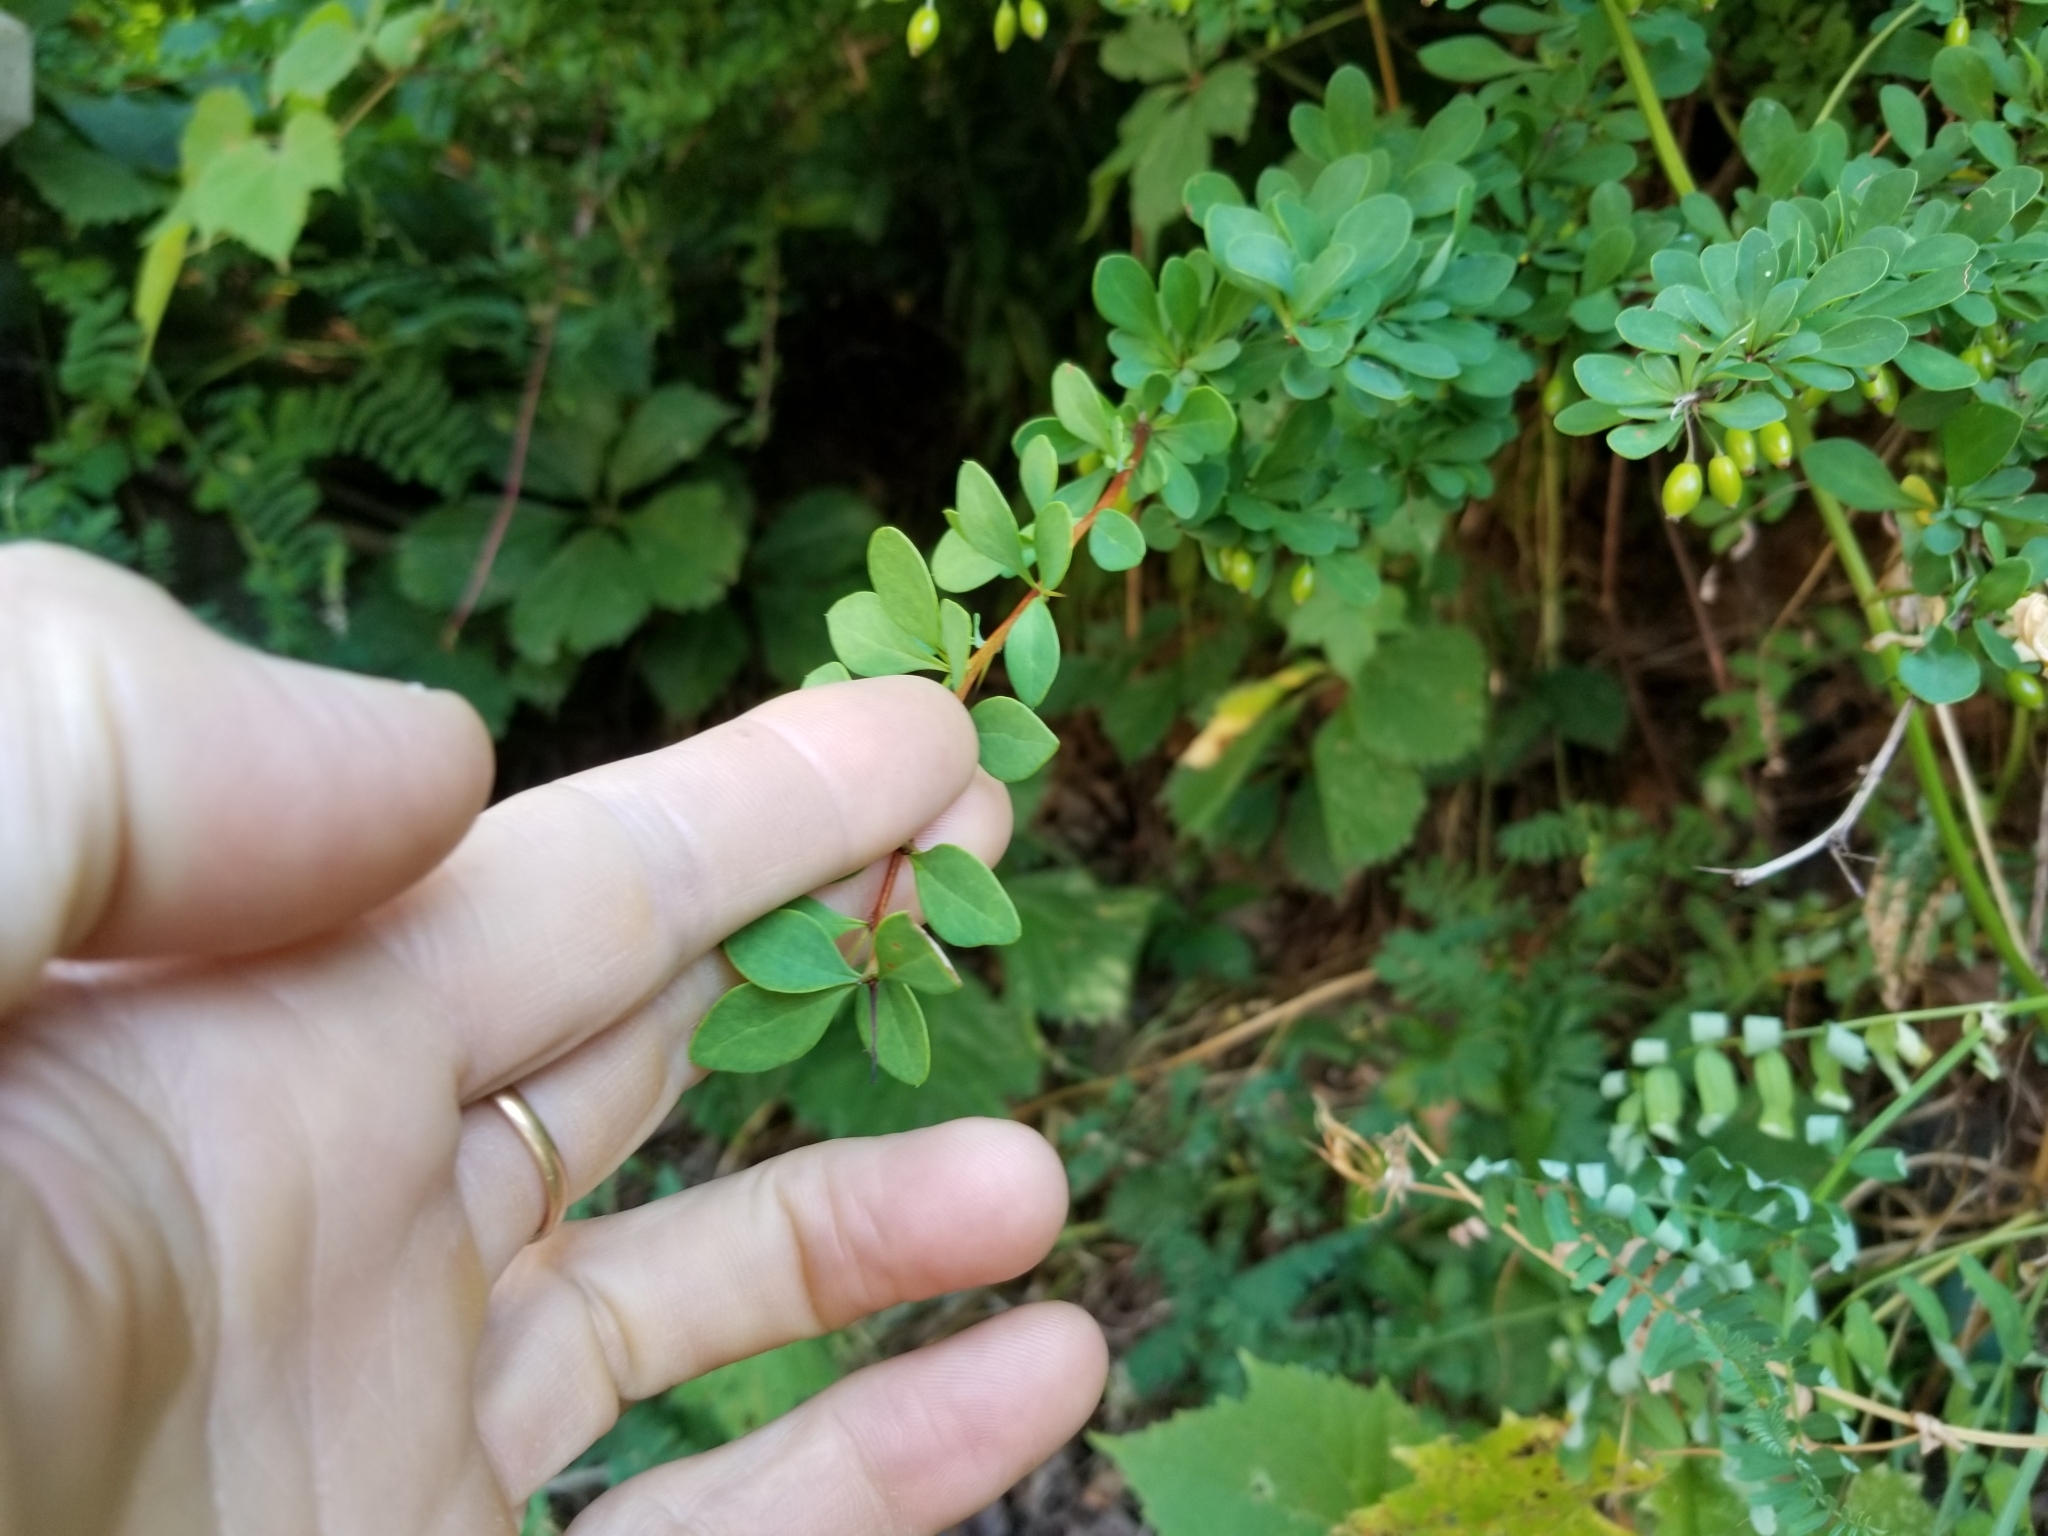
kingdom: Plantae
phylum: Tracheophyta
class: Magnoliopsida
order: Ranunculales
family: Berberidaceae
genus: Berberis
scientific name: Berberis thunbergii
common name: Japanese barberry
